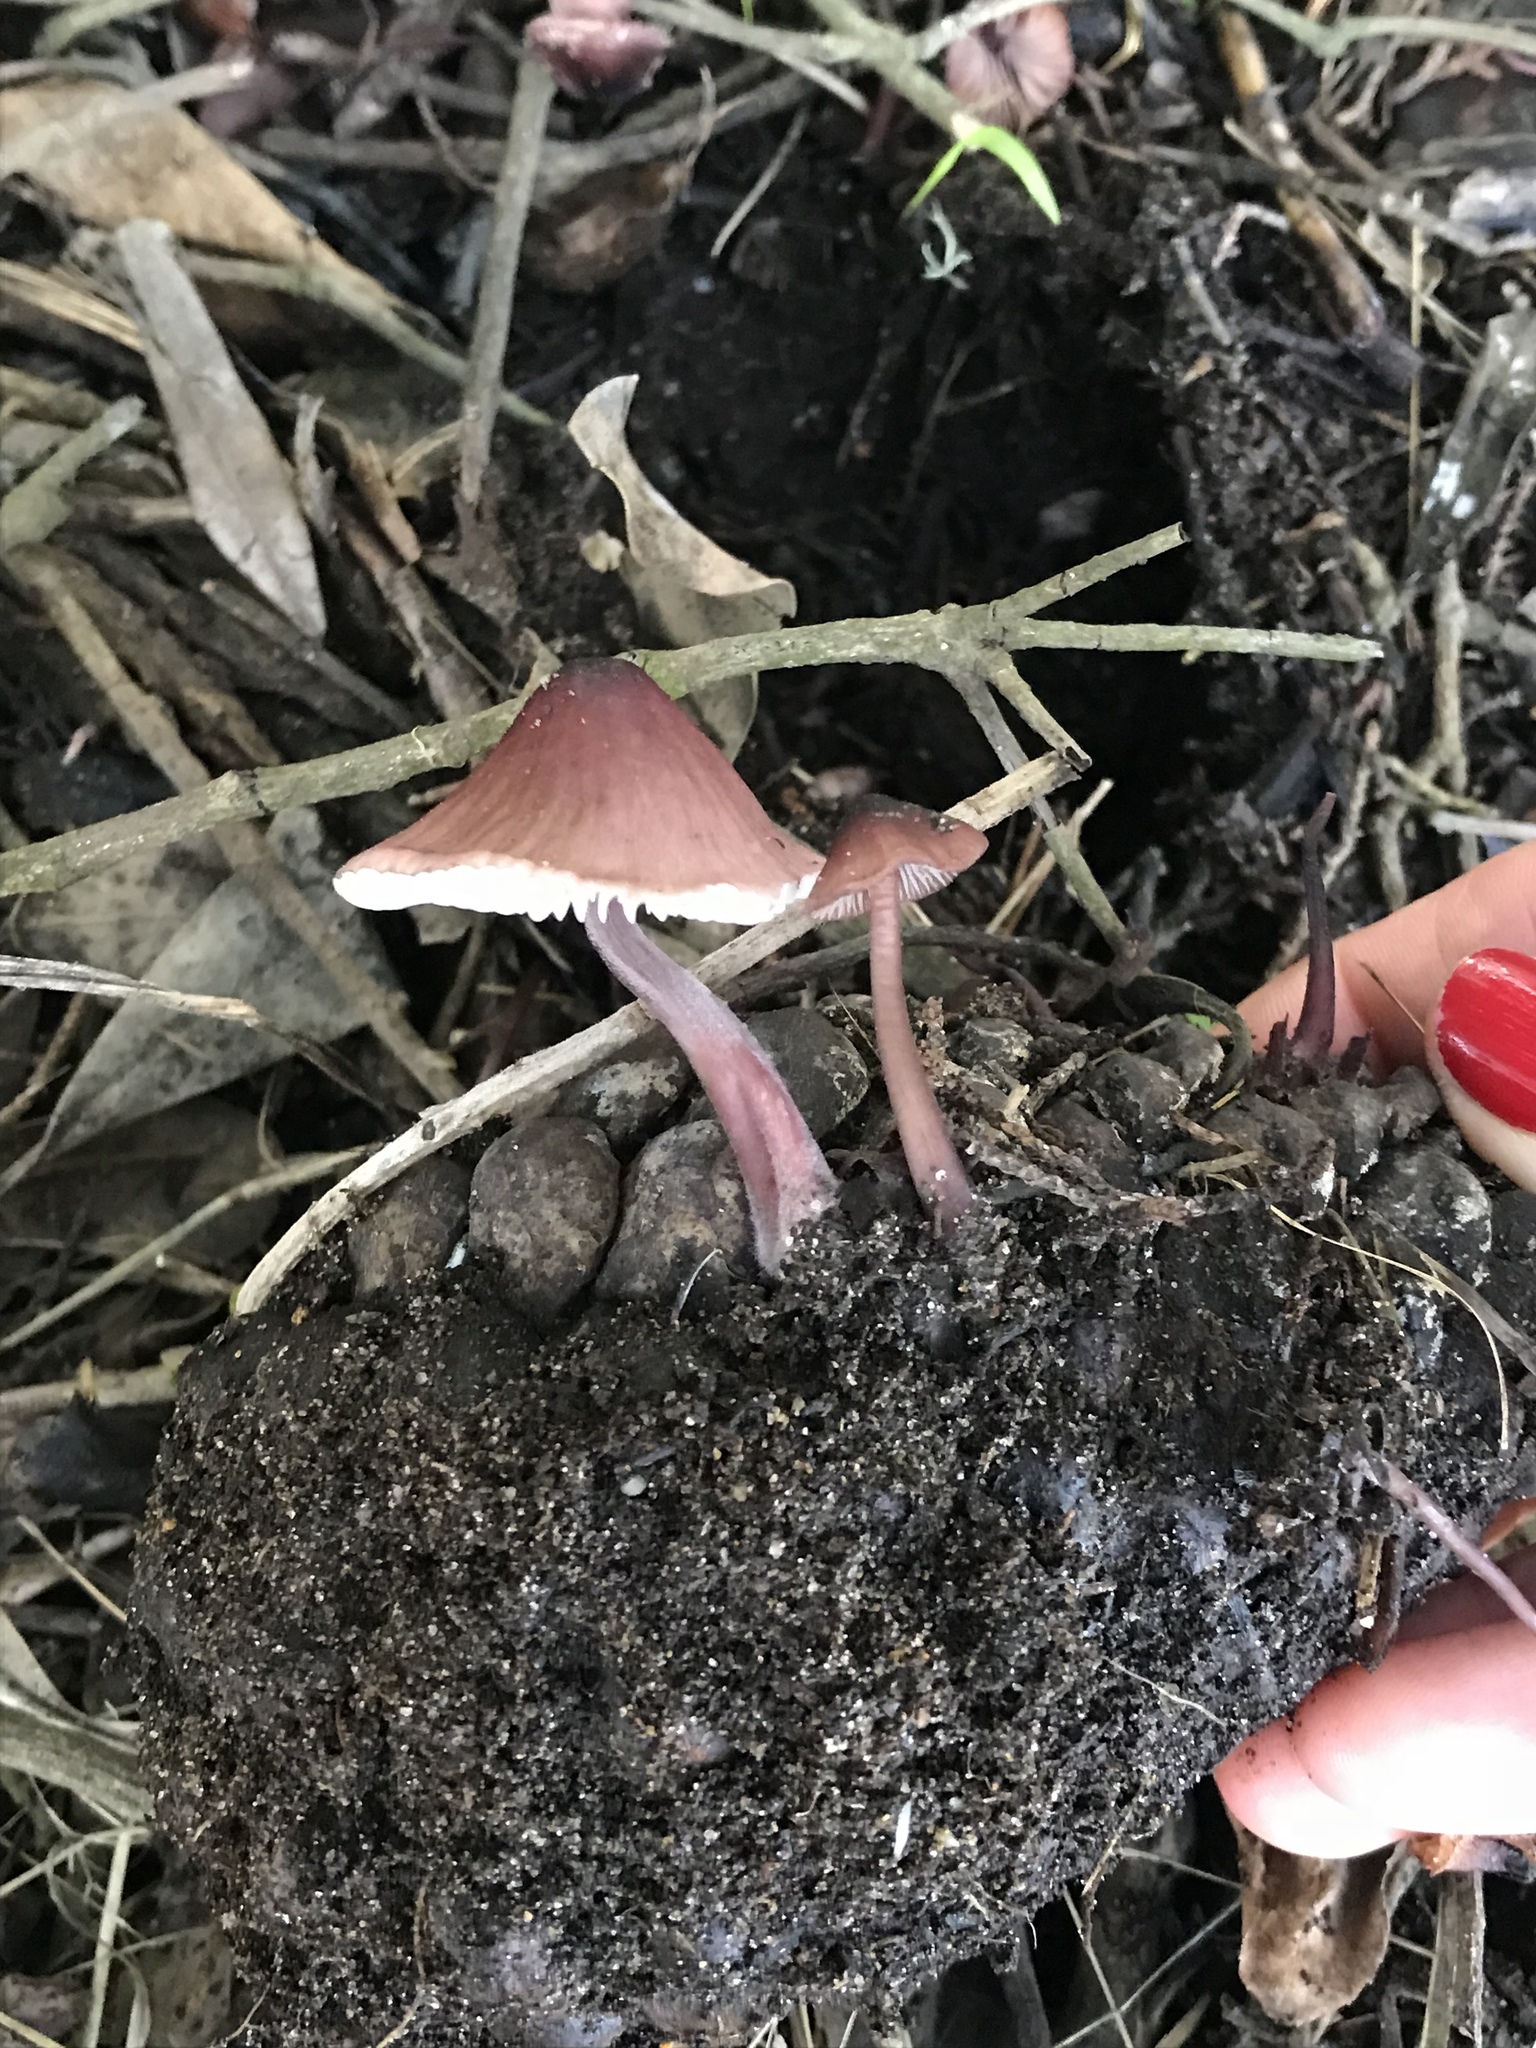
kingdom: Fungi
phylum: Basidiomycota
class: Agaricomycetes
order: Agaricales
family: Mycenaceae
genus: Mycena
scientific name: Mycena purpureofusca
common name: Purple edge bonnet
